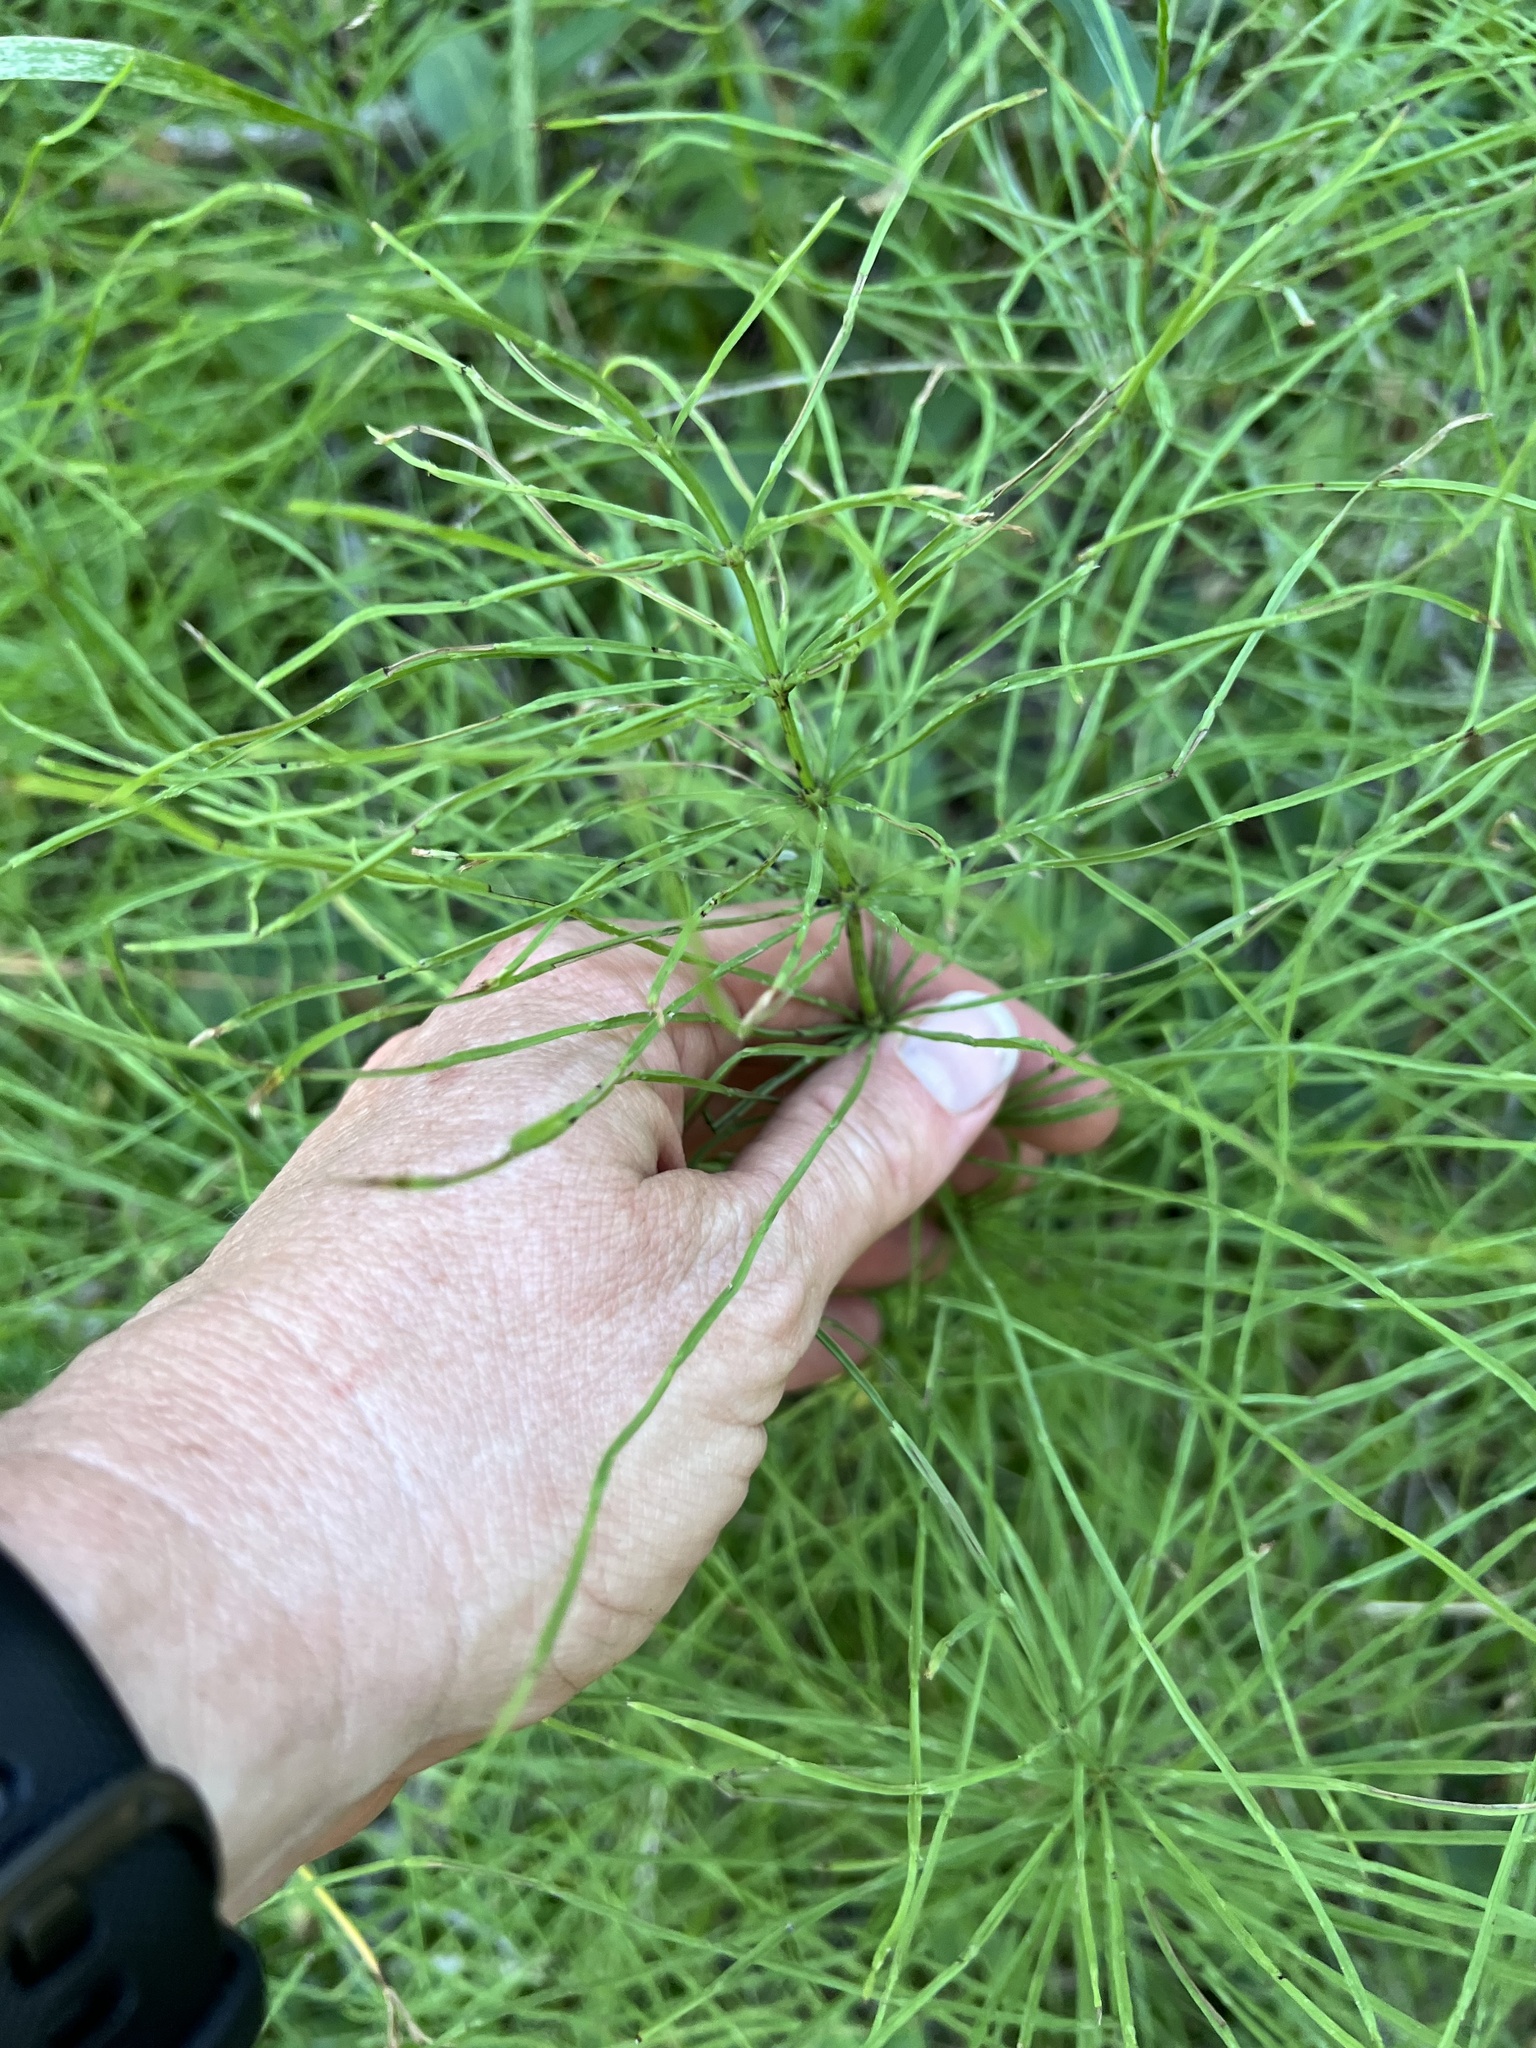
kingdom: Plantae
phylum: Tracheophyta
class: Polypodiopsida
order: Equisetales
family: Equisetaceae
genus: Equisetum
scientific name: Equisetum arvense
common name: Field horsetail
